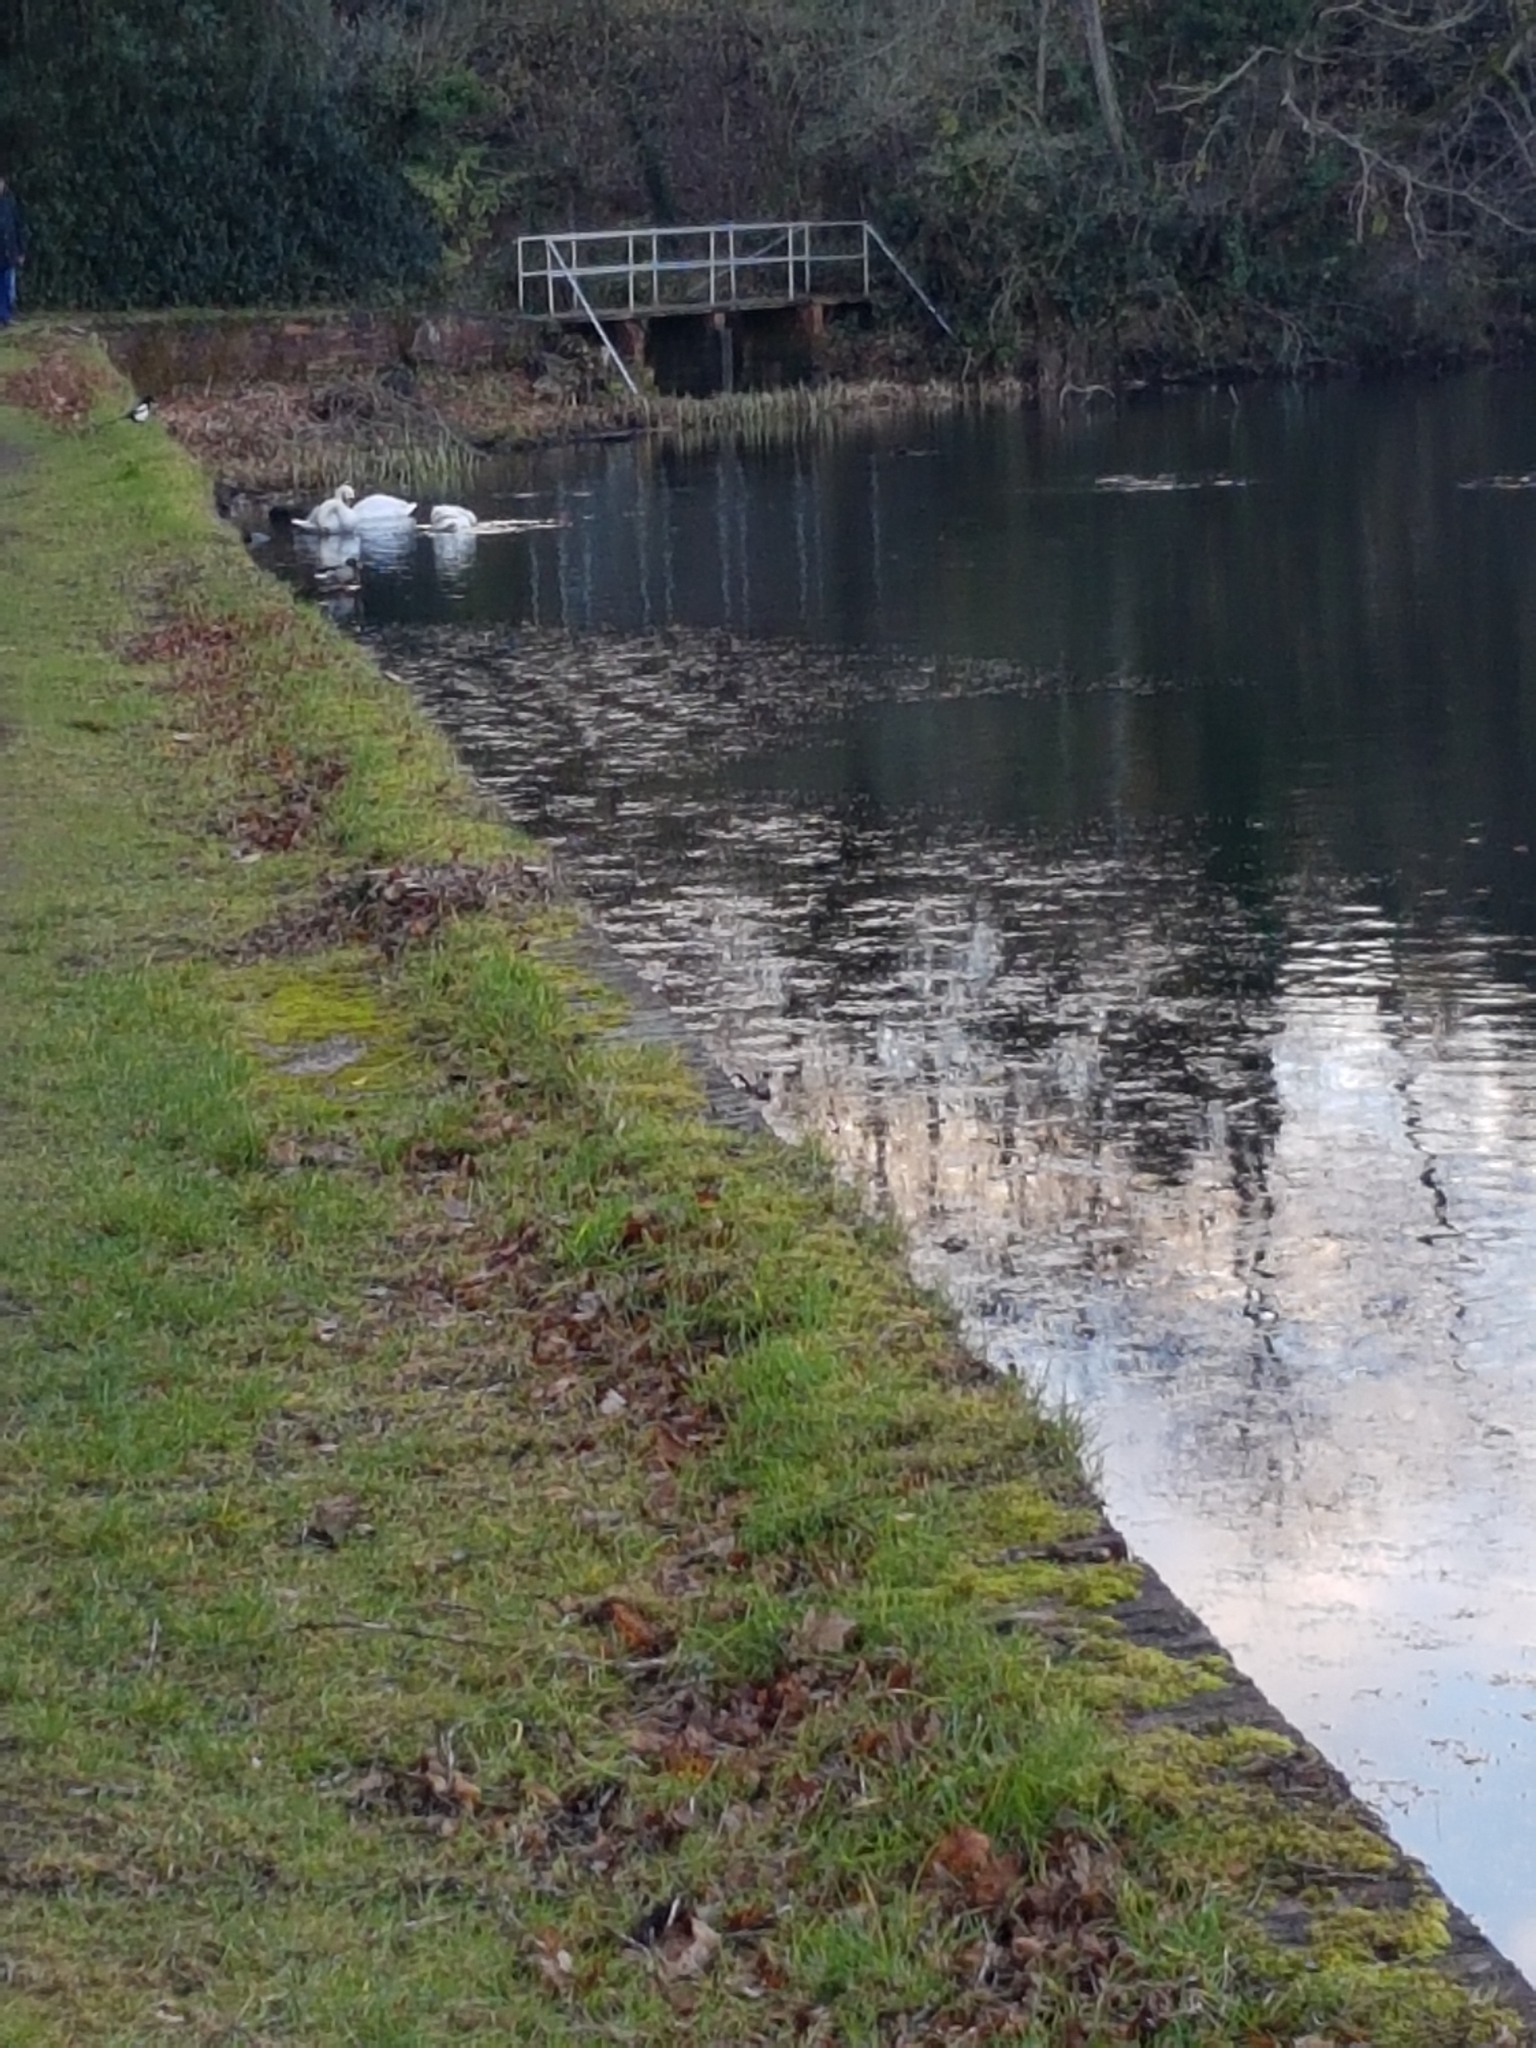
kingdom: Animalia
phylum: Chordata
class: Aves
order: Anseriformes
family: Anatidae
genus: Cygnus
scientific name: Cygnus olor
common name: Mute swan
